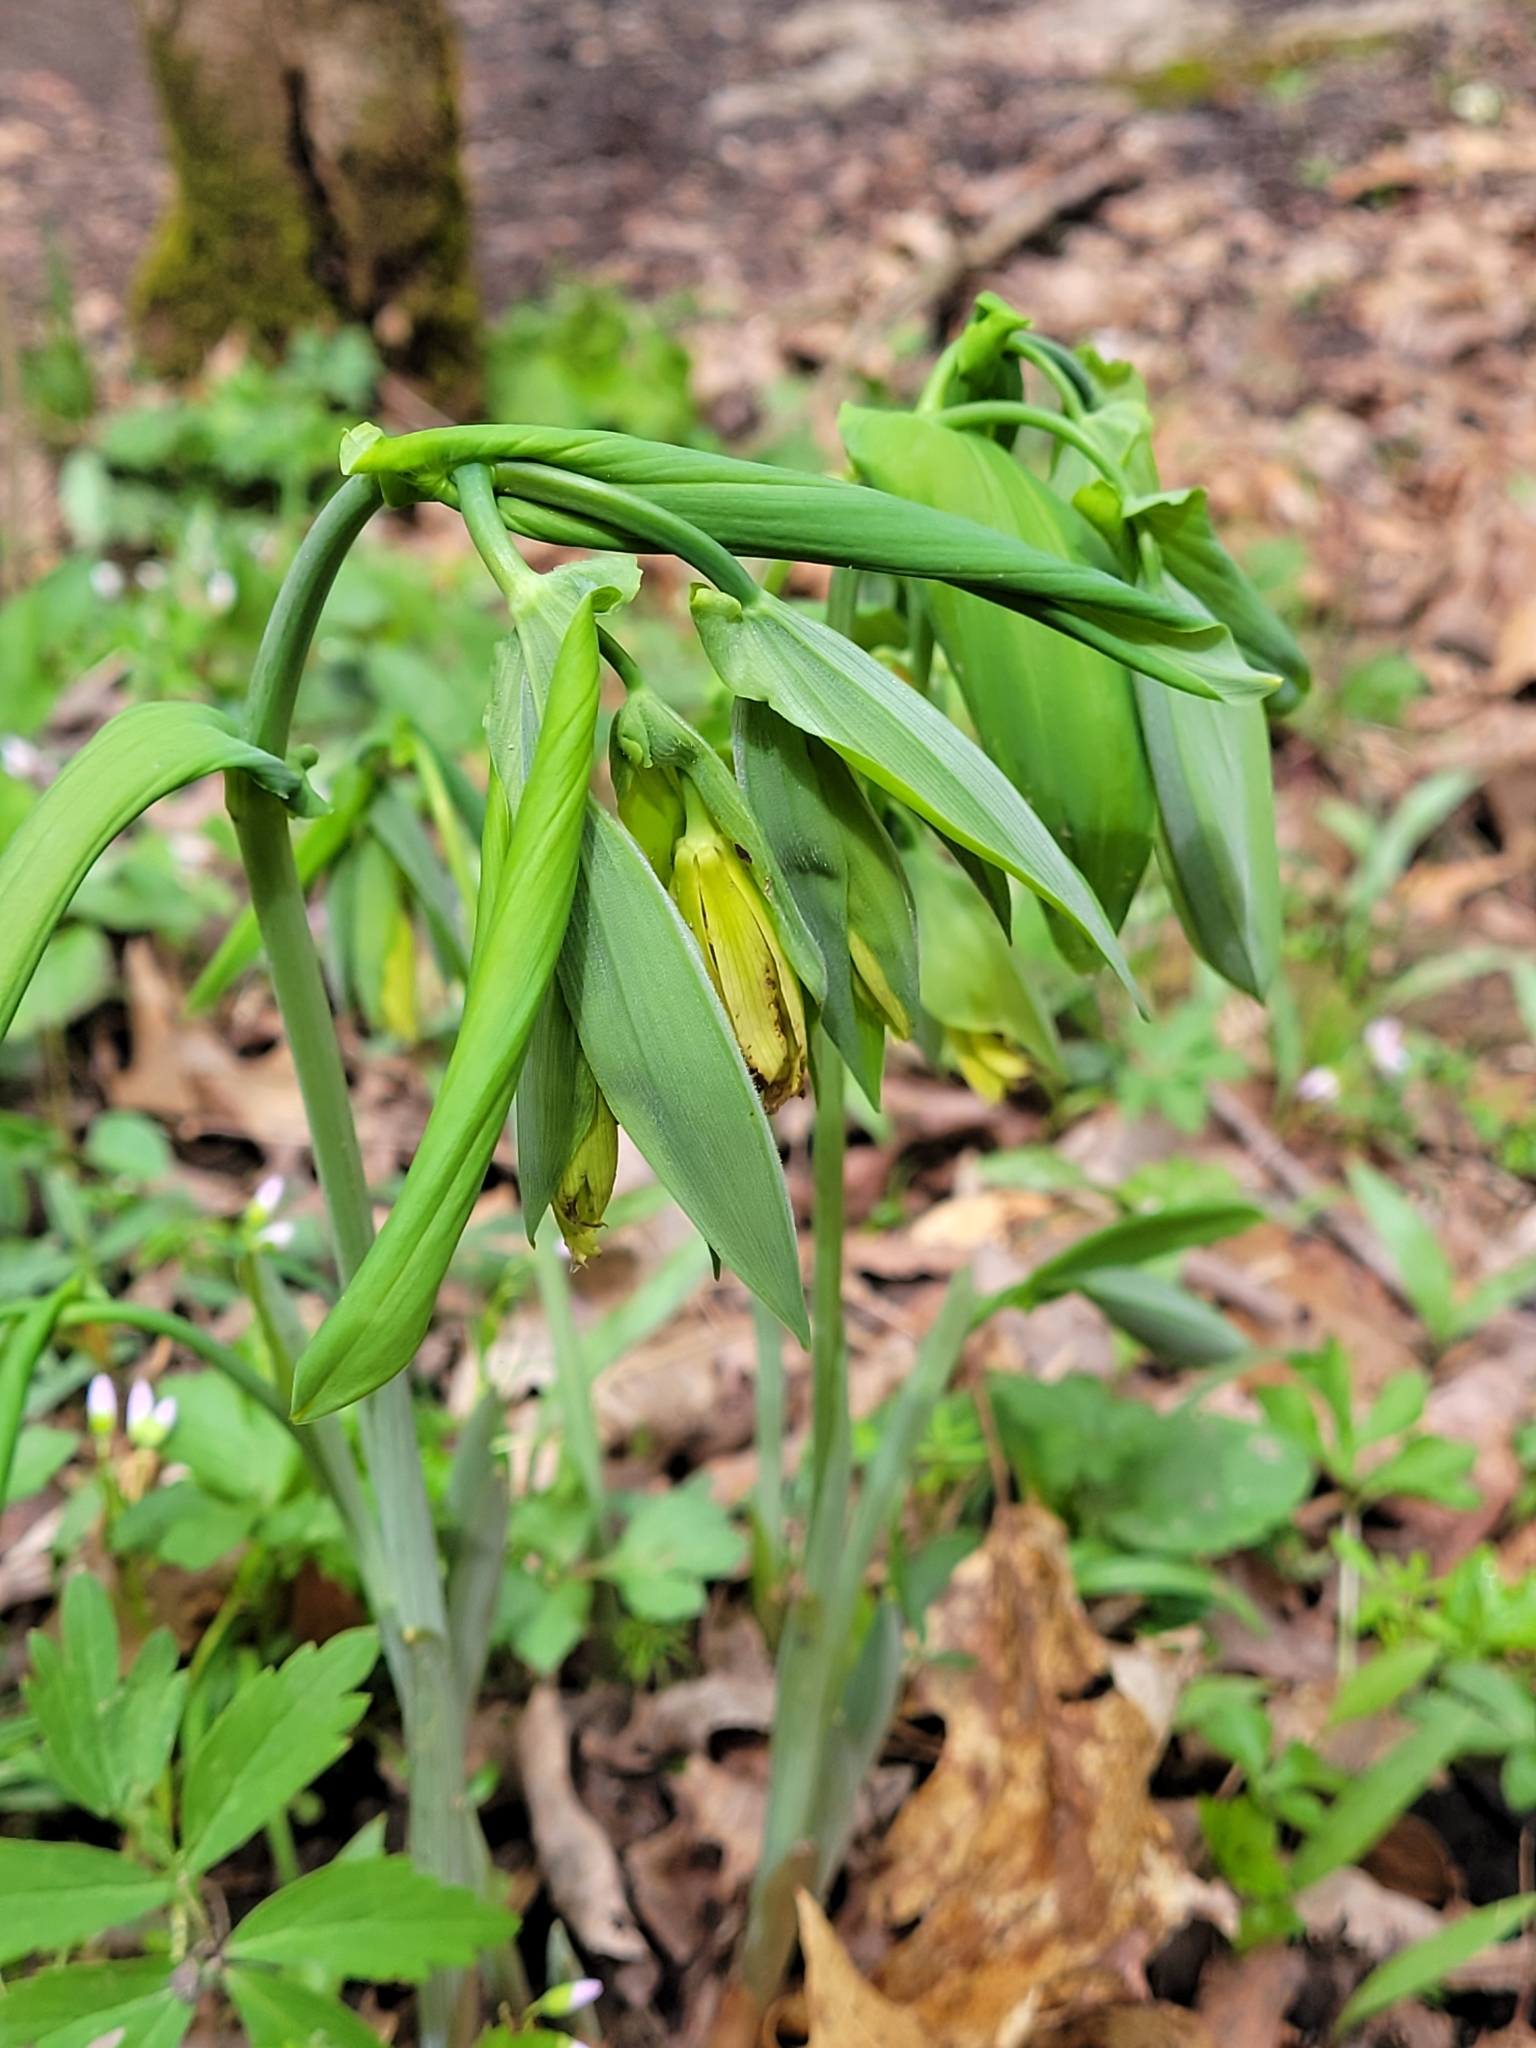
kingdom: Plantae
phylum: Tracheophyta
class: Liliopsida
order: Liliales
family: Colchicaceae
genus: Uvularia
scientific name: Uvularia grandiflora
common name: Bellwort
